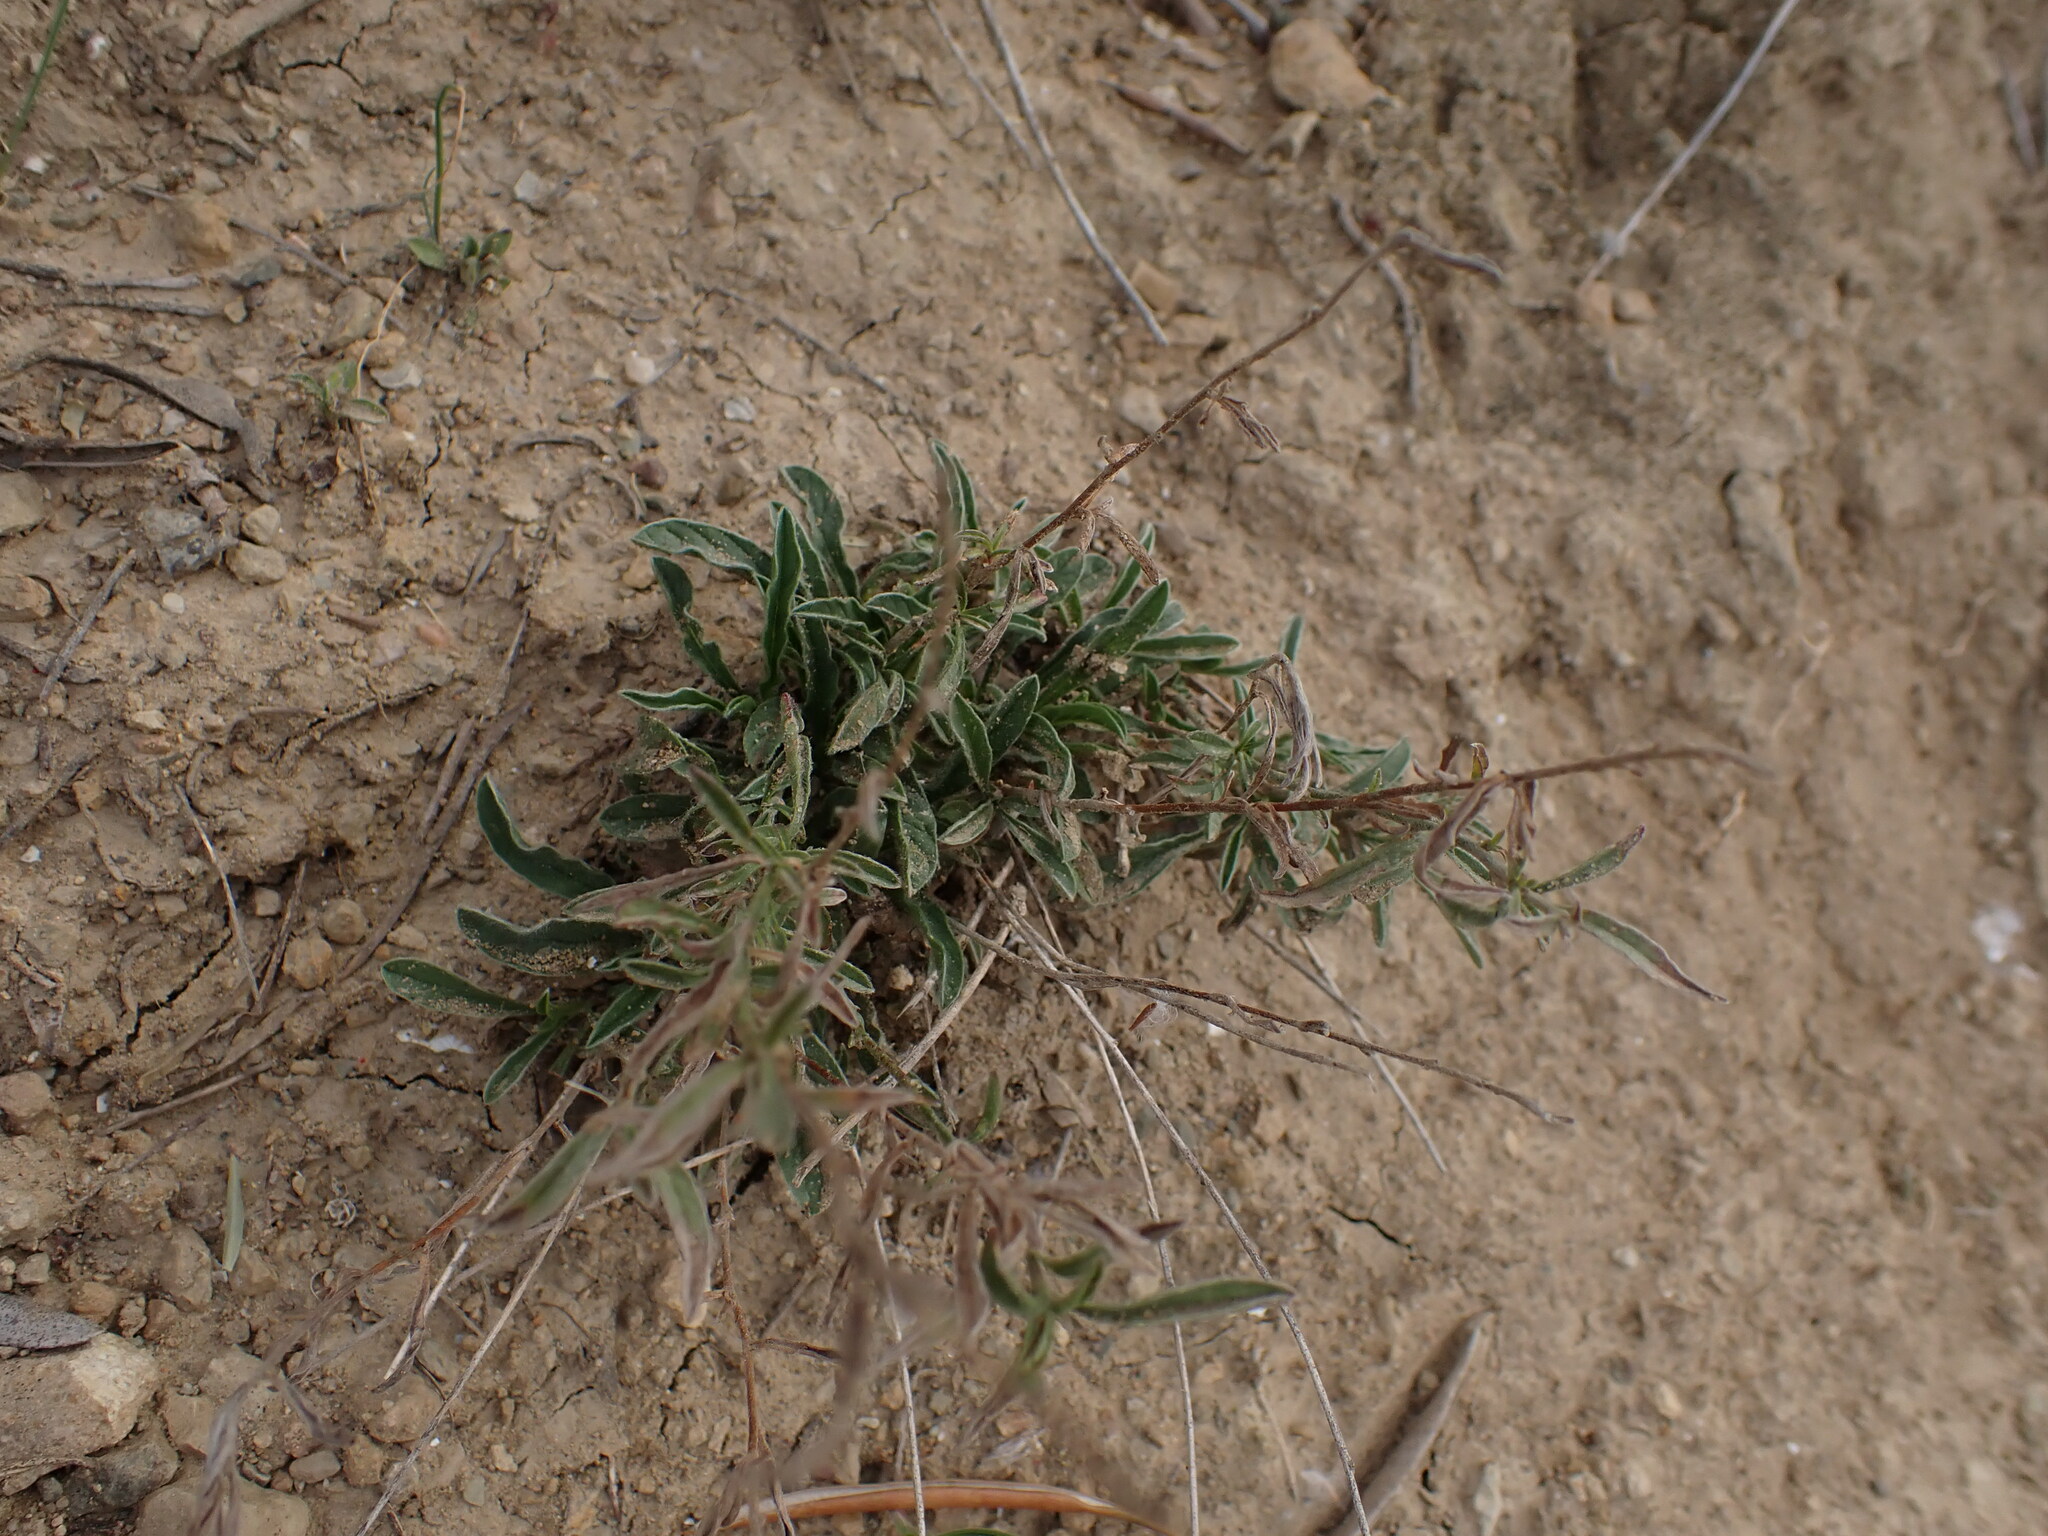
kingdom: Plantae
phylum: Tracheophyta
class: Magnoliopsida
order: Solanales
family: Convolvulaceae
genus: Convolvulus
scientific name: Convolvulus cantabrica
